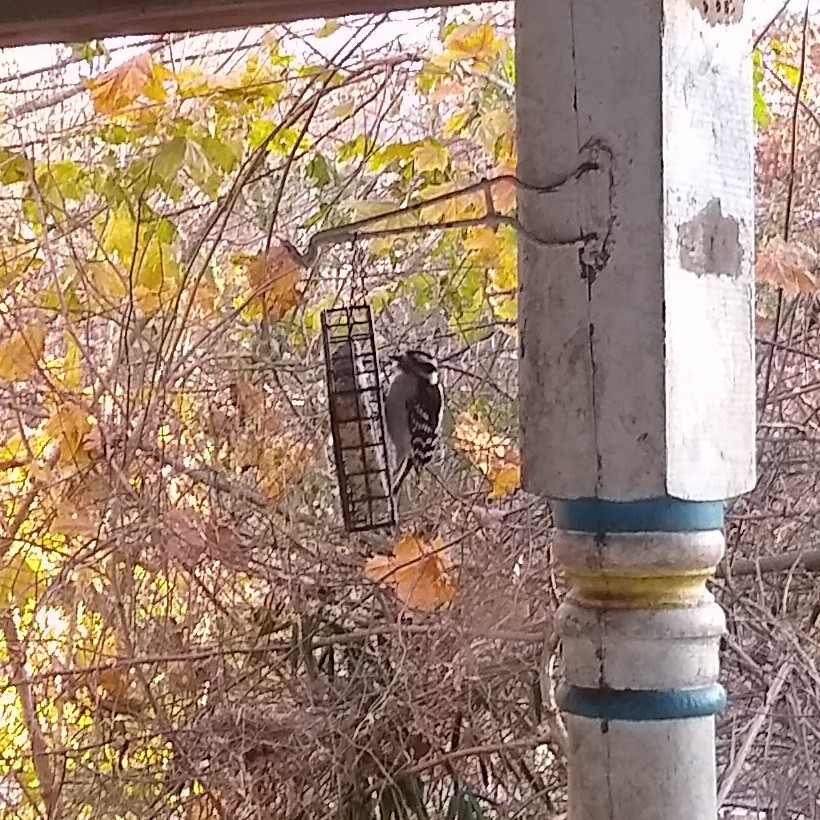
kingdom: Animalia
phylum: Chordata
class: Aves
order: Piciformes
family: Picidae
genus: Dryobates
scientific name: Dryobates pubescens
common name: Downy woodpecker
